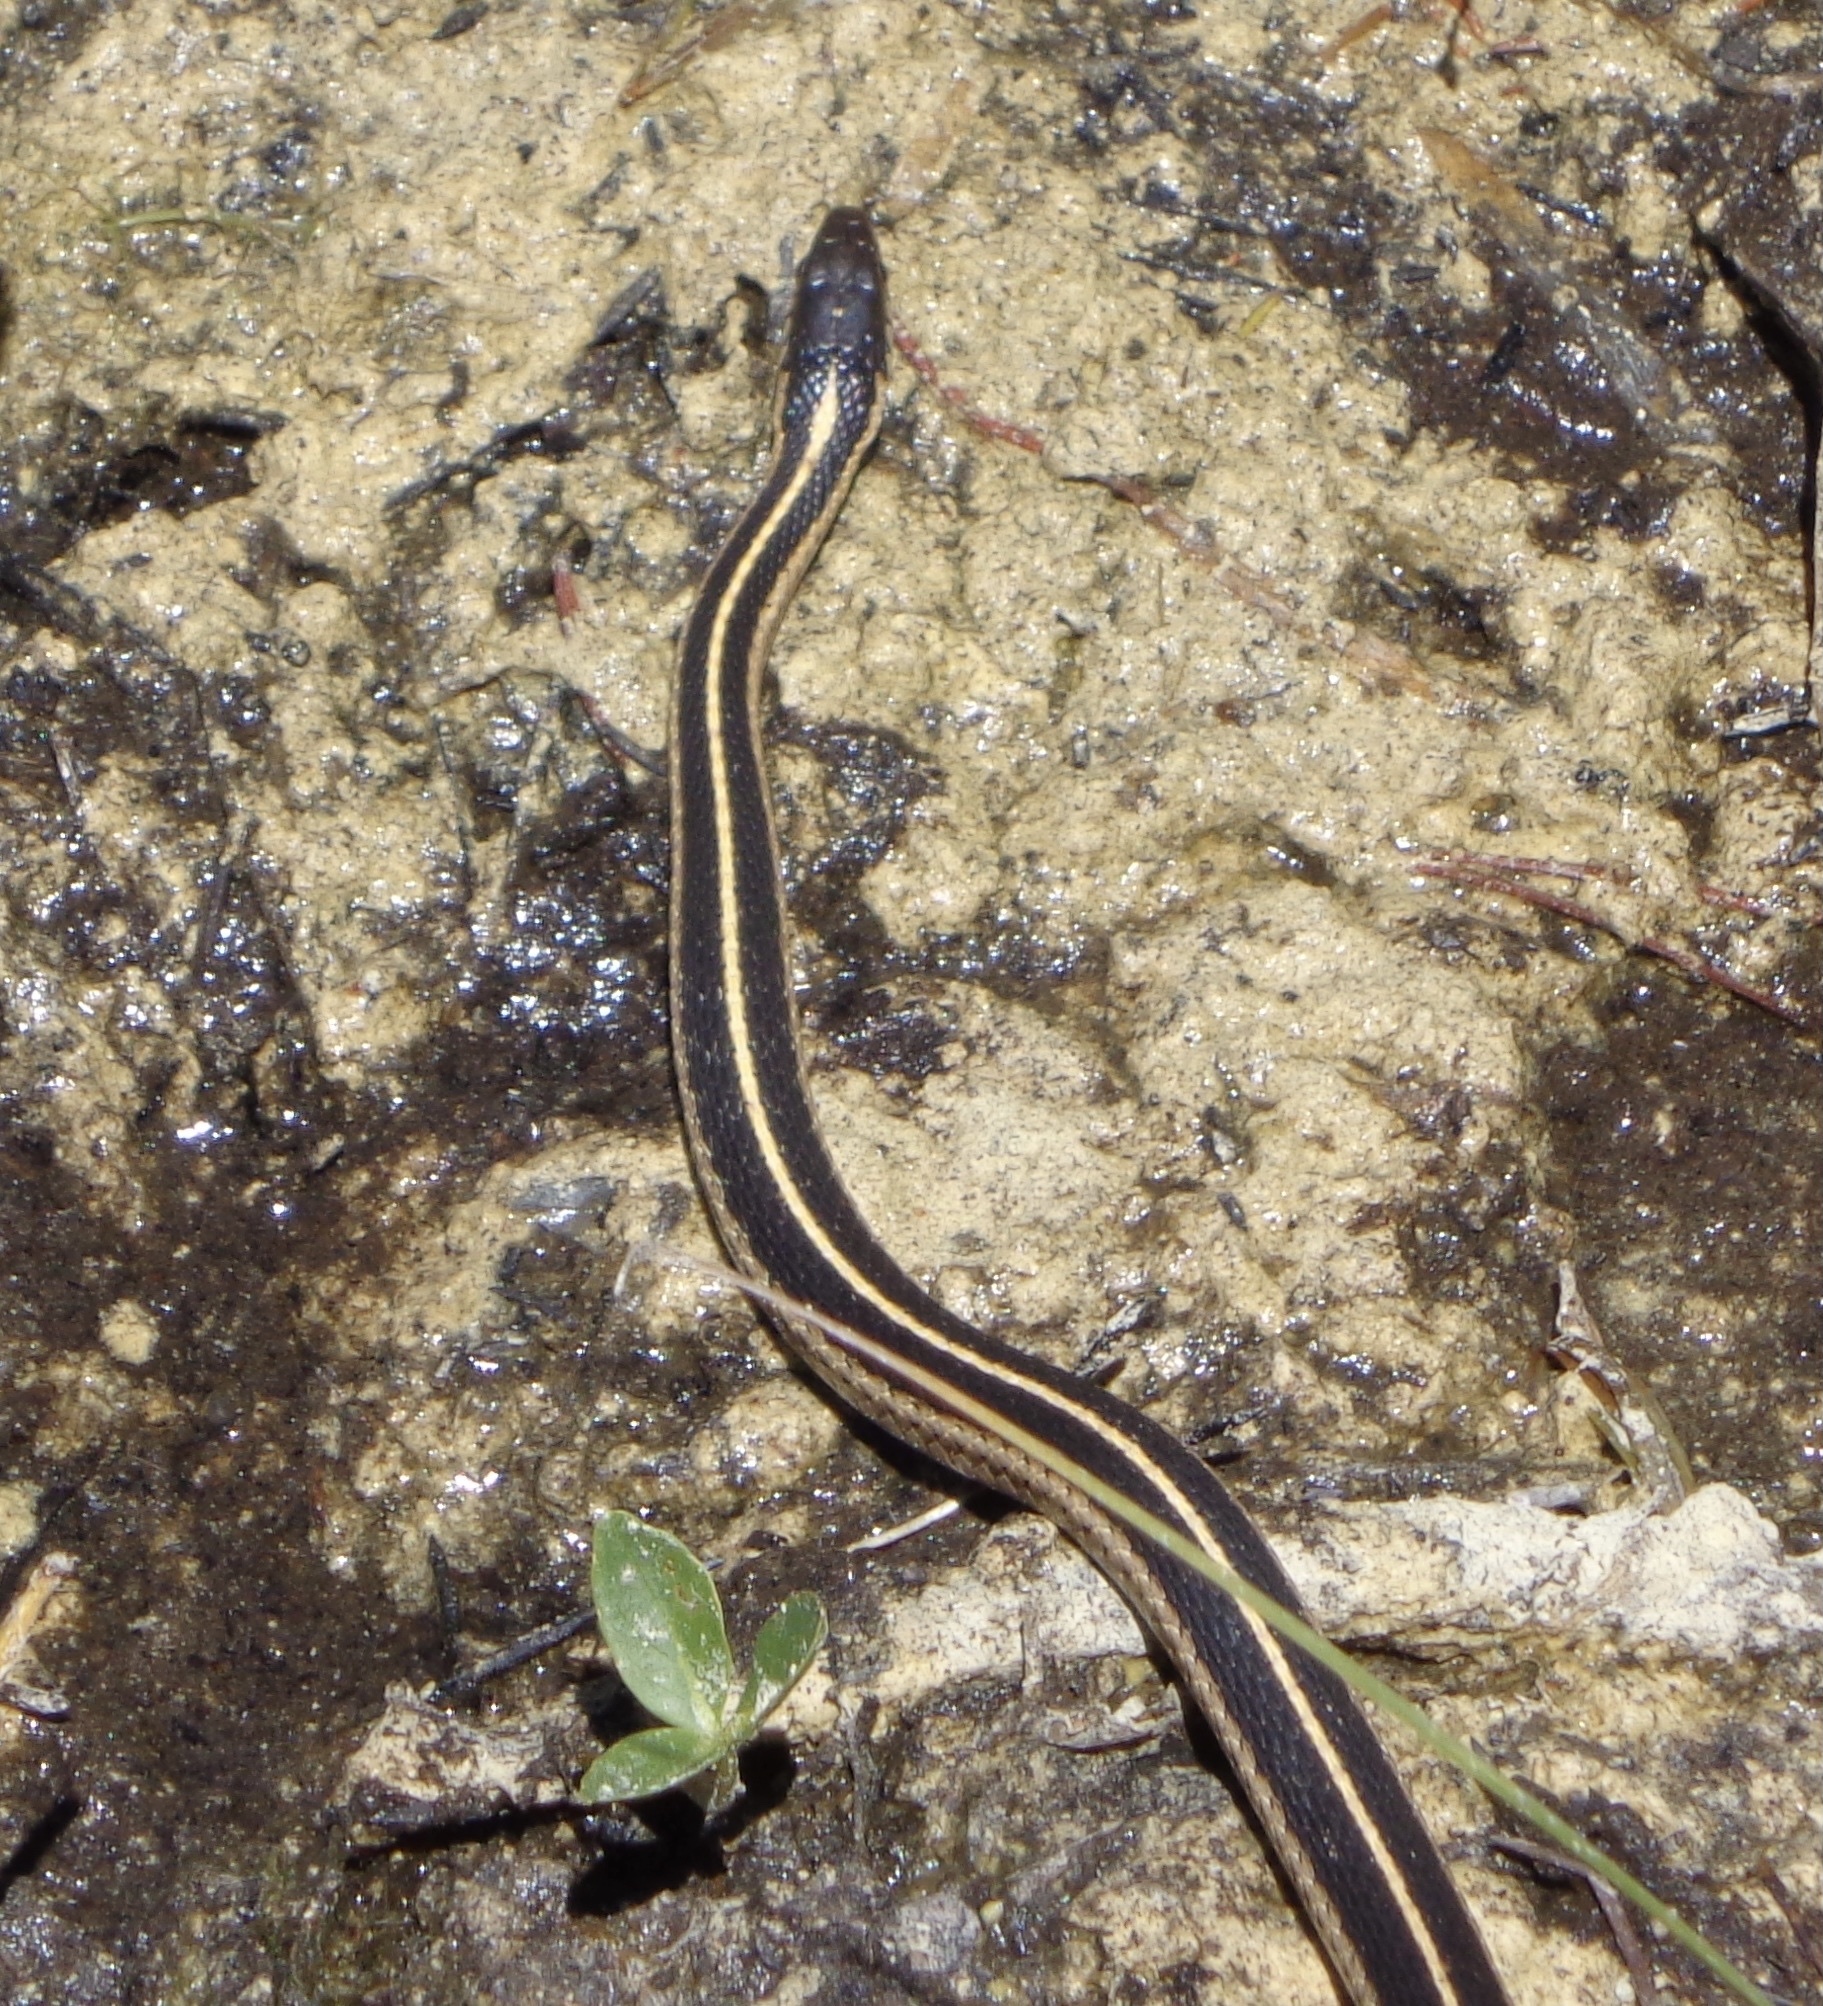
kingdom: Animalia
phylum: Chordata
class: Squamata
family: Colubridae
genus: Thamnophis
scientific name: Thamnophis elegans
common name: Western terrestrial garter snake
